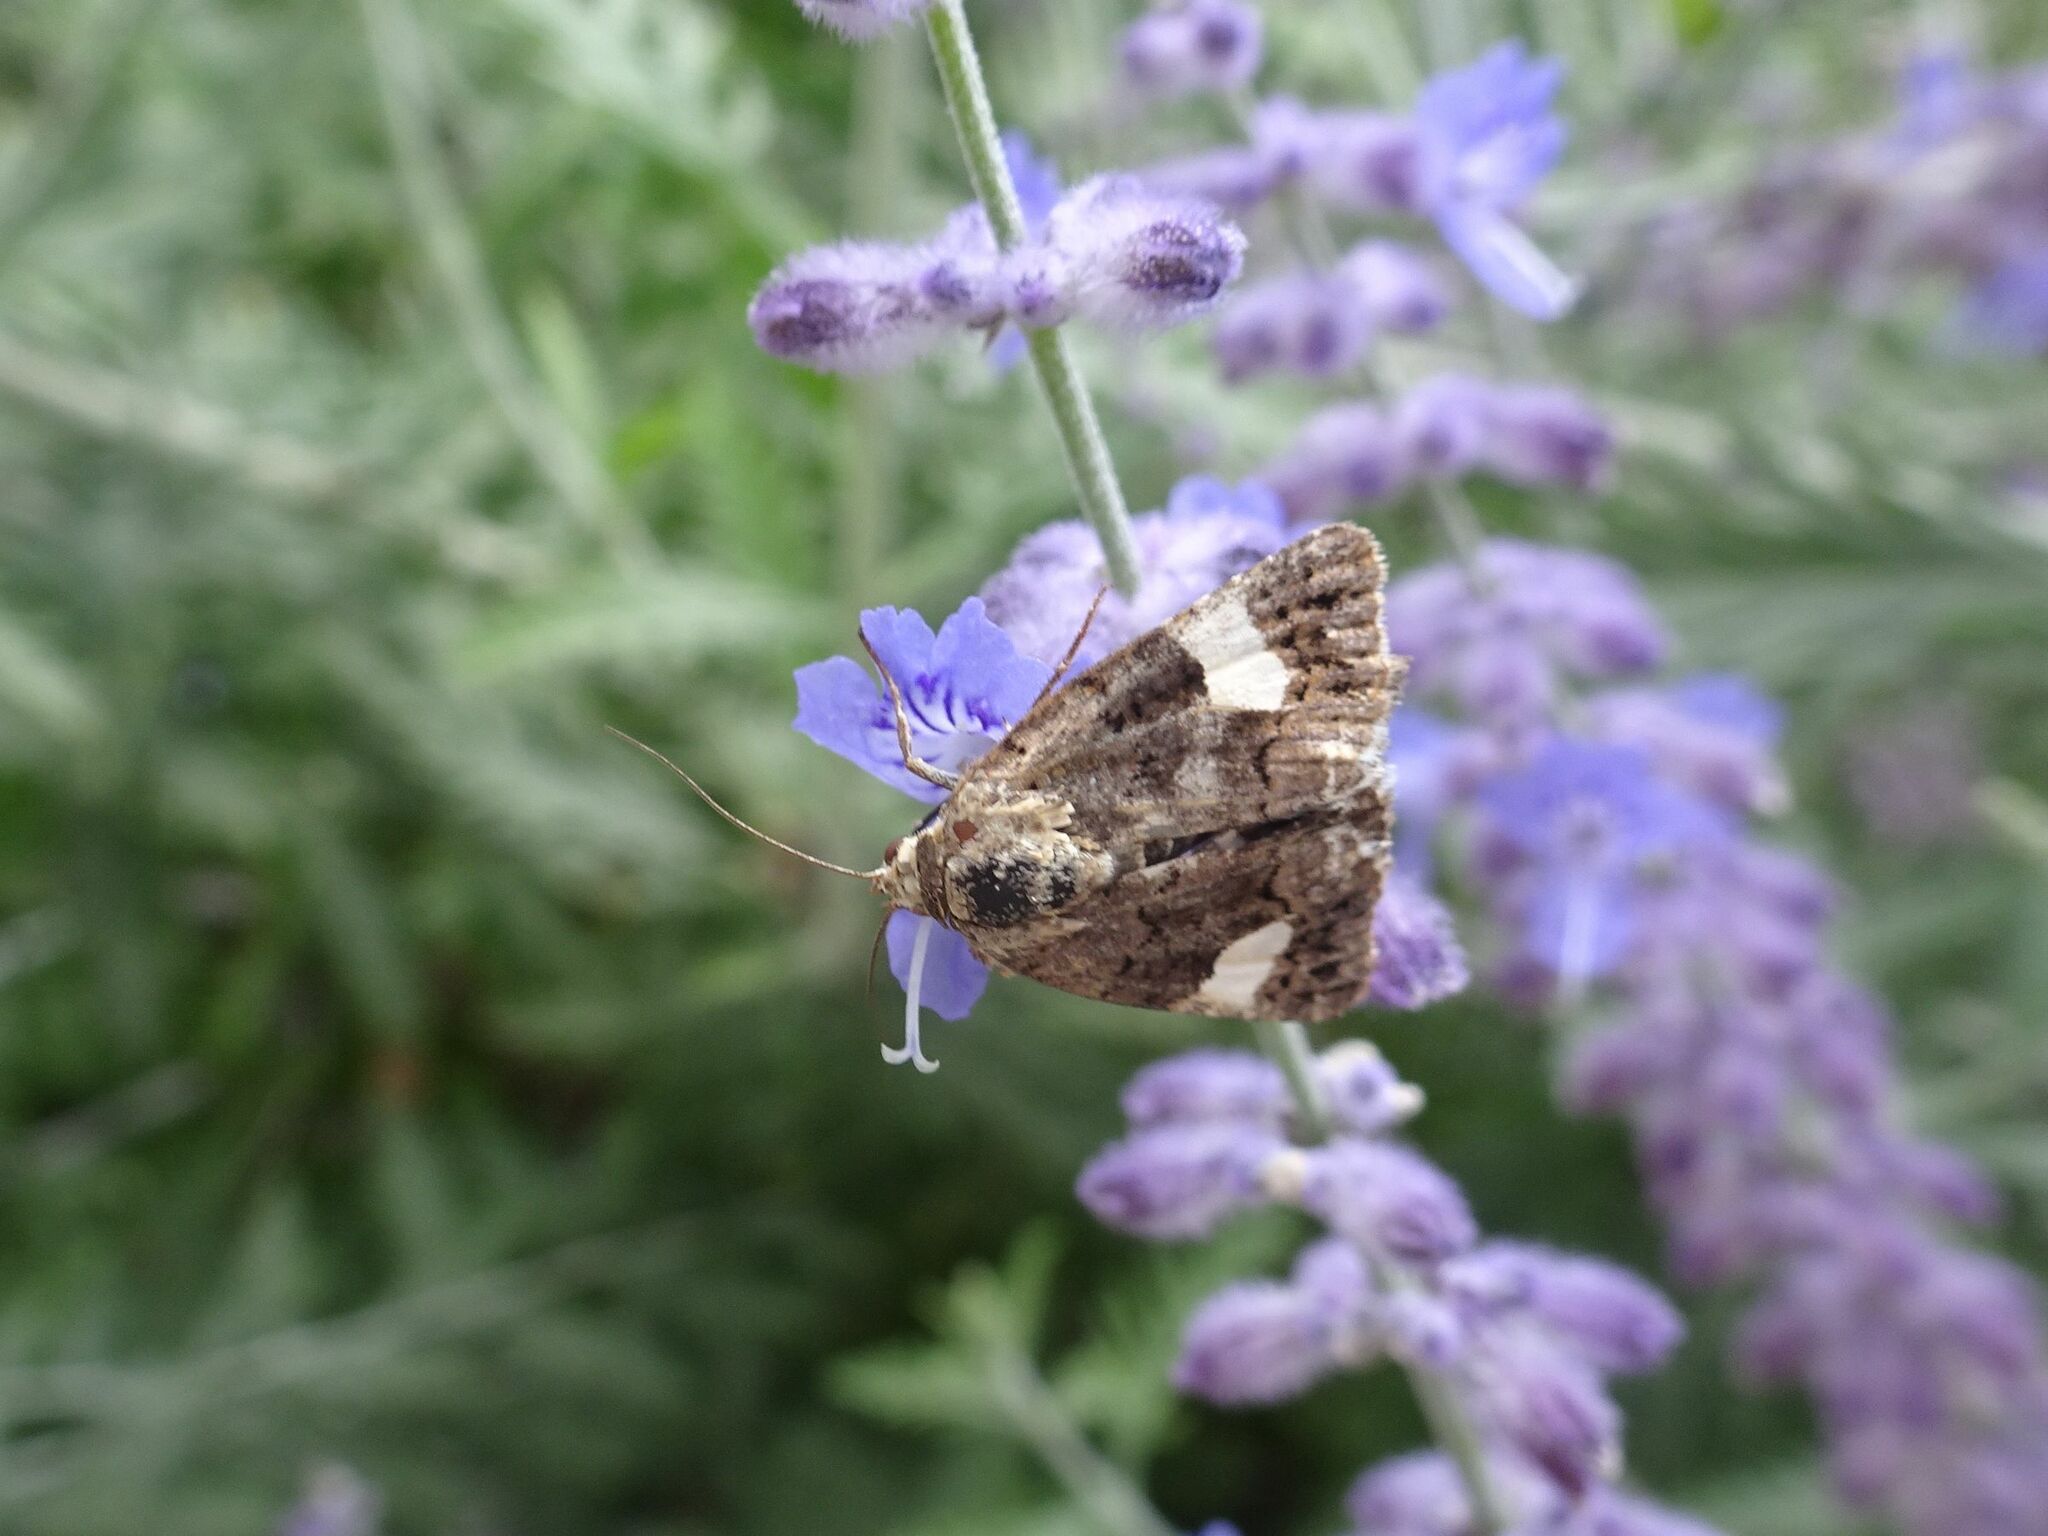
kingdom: Animalia
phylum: Arthropoda
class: Insecta
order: Lepidoptera
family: Erebidae
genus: Tyta
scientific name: Tyta luctuosa
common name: Four-spotted
